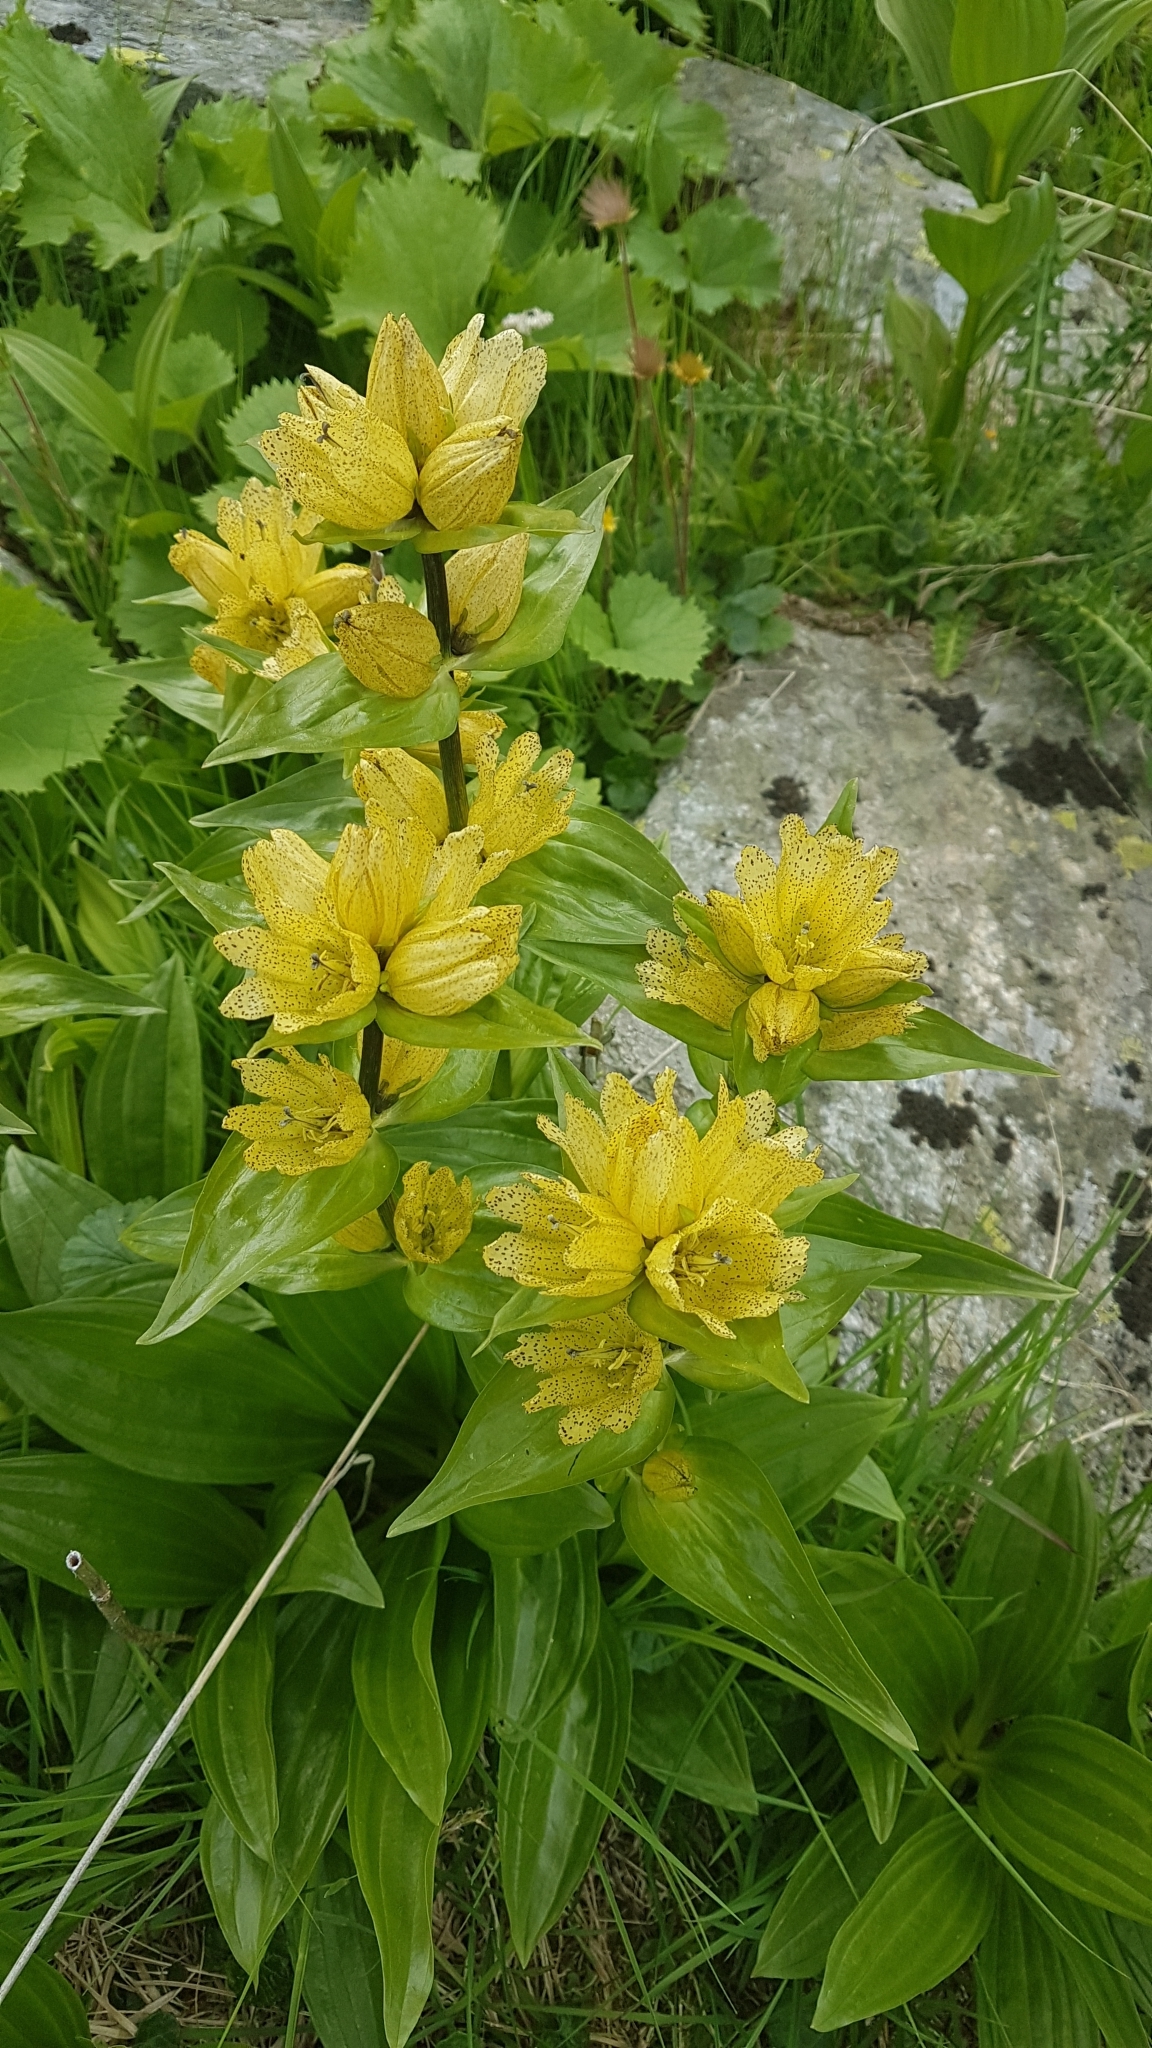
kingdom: Plantae
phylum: Tracheophyta
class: Magnoliopsida
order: Gentianales
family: Gentianaceae
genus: Gentiana
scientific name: Gentiana punctata
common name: Spotted gentian
